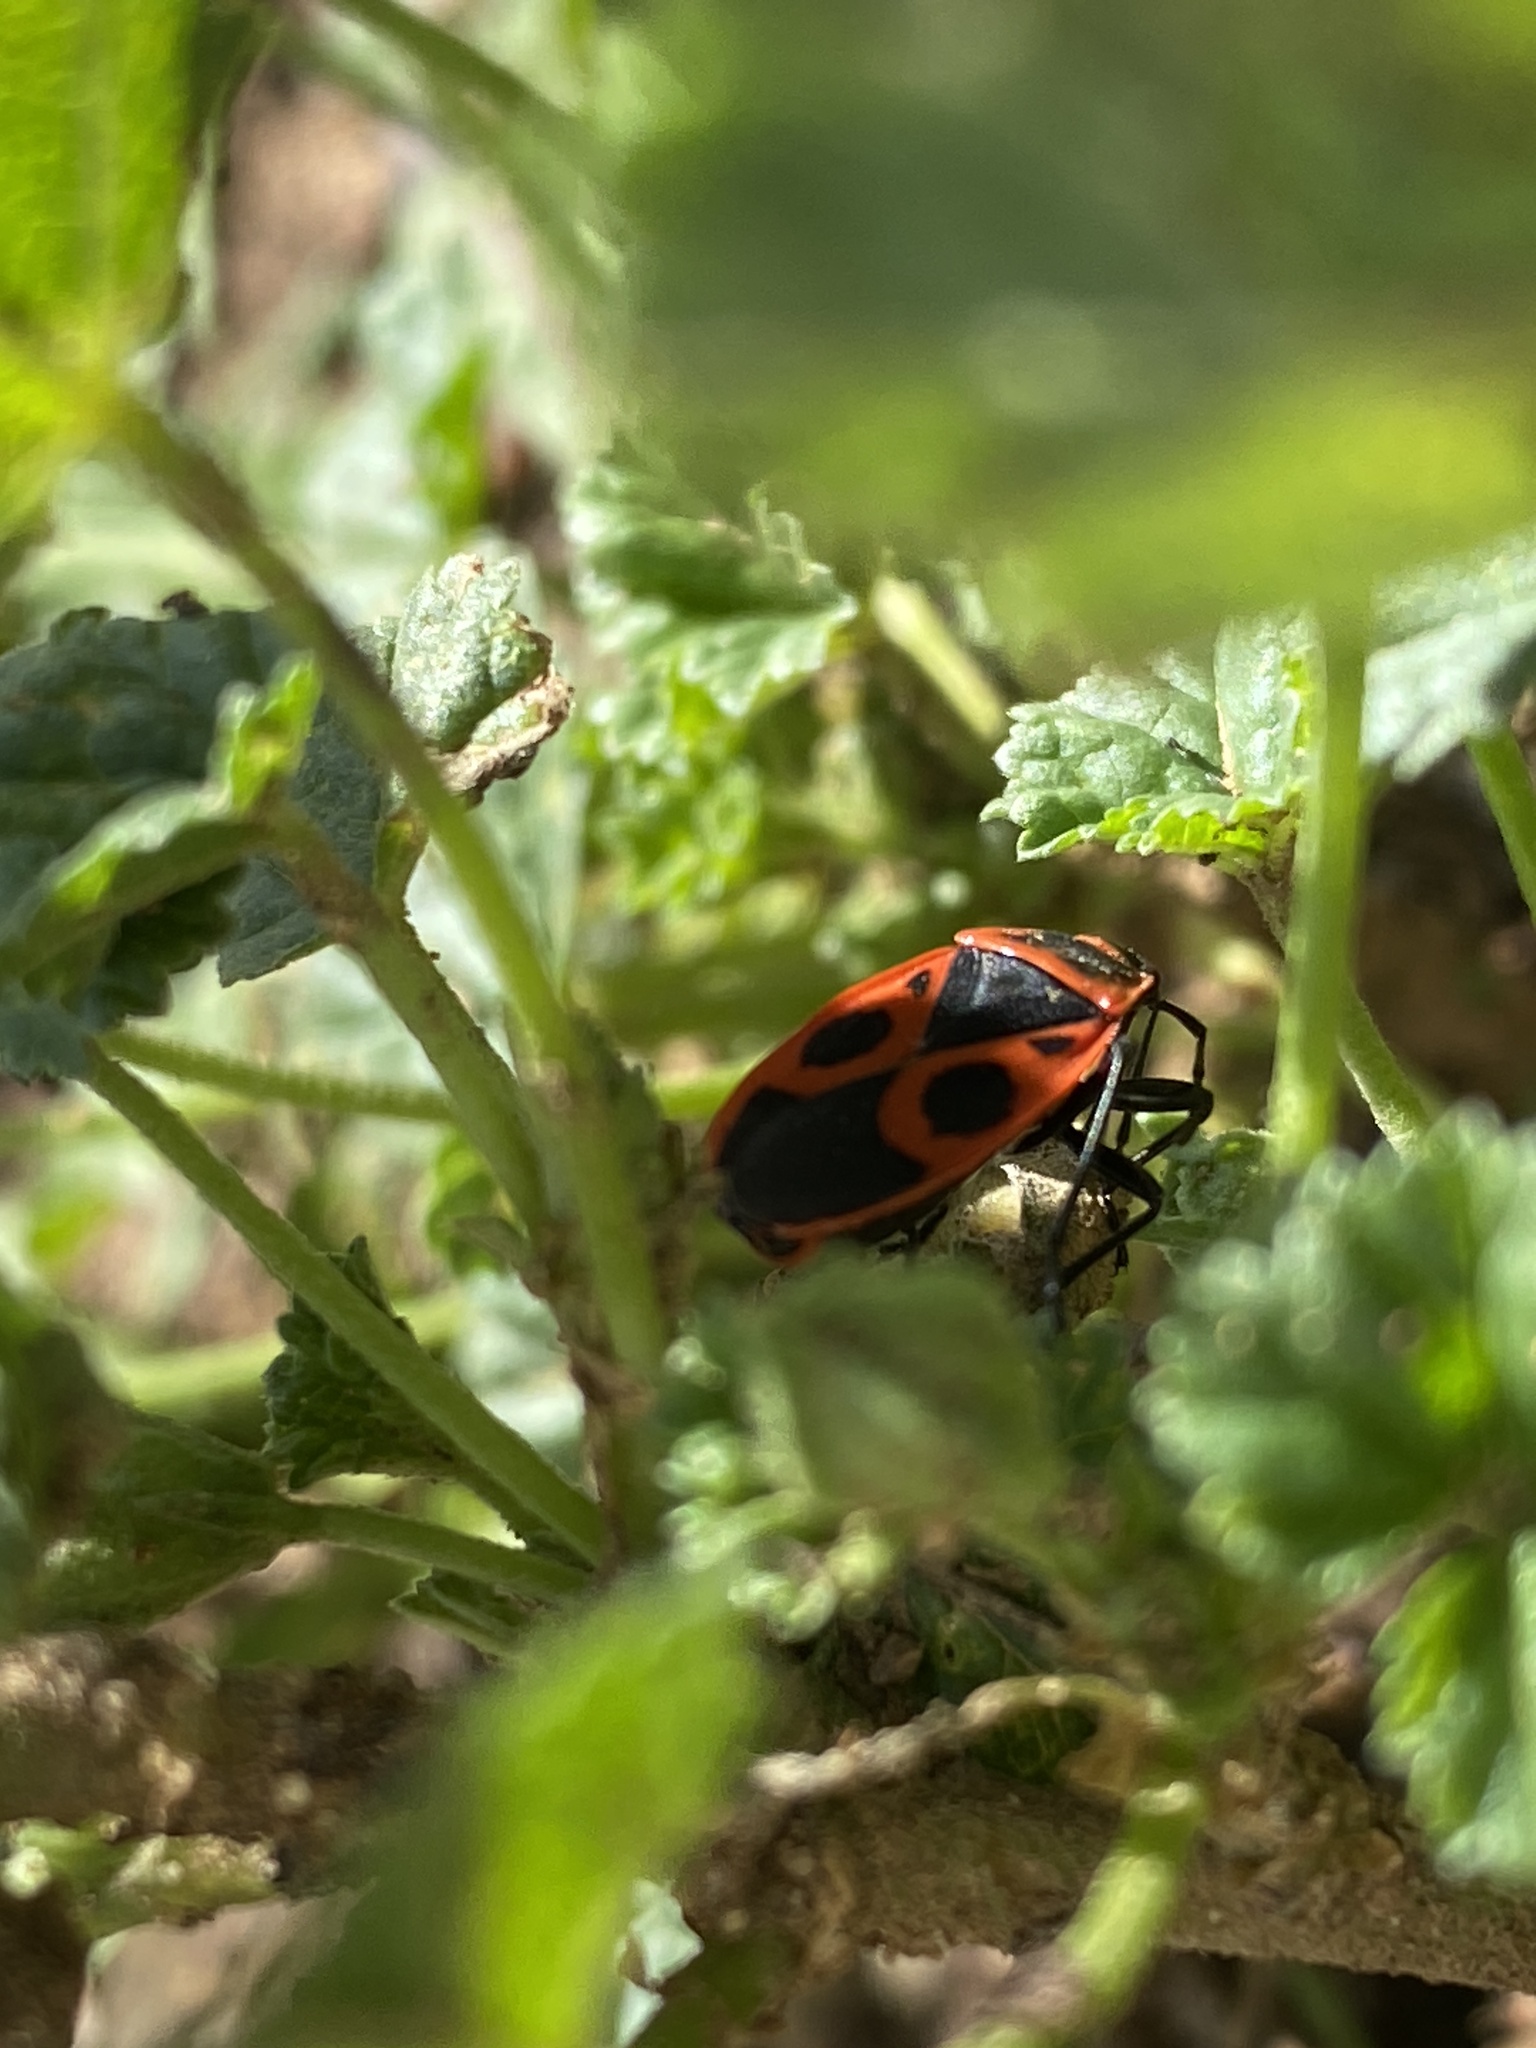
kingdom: Animalia
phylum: Arthropoda
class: Insecta
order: Hemiptera
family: Pyrrhocoridae
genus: Pyrrhocoris
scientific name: Pyrrhocoris apterus
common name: Firebug
